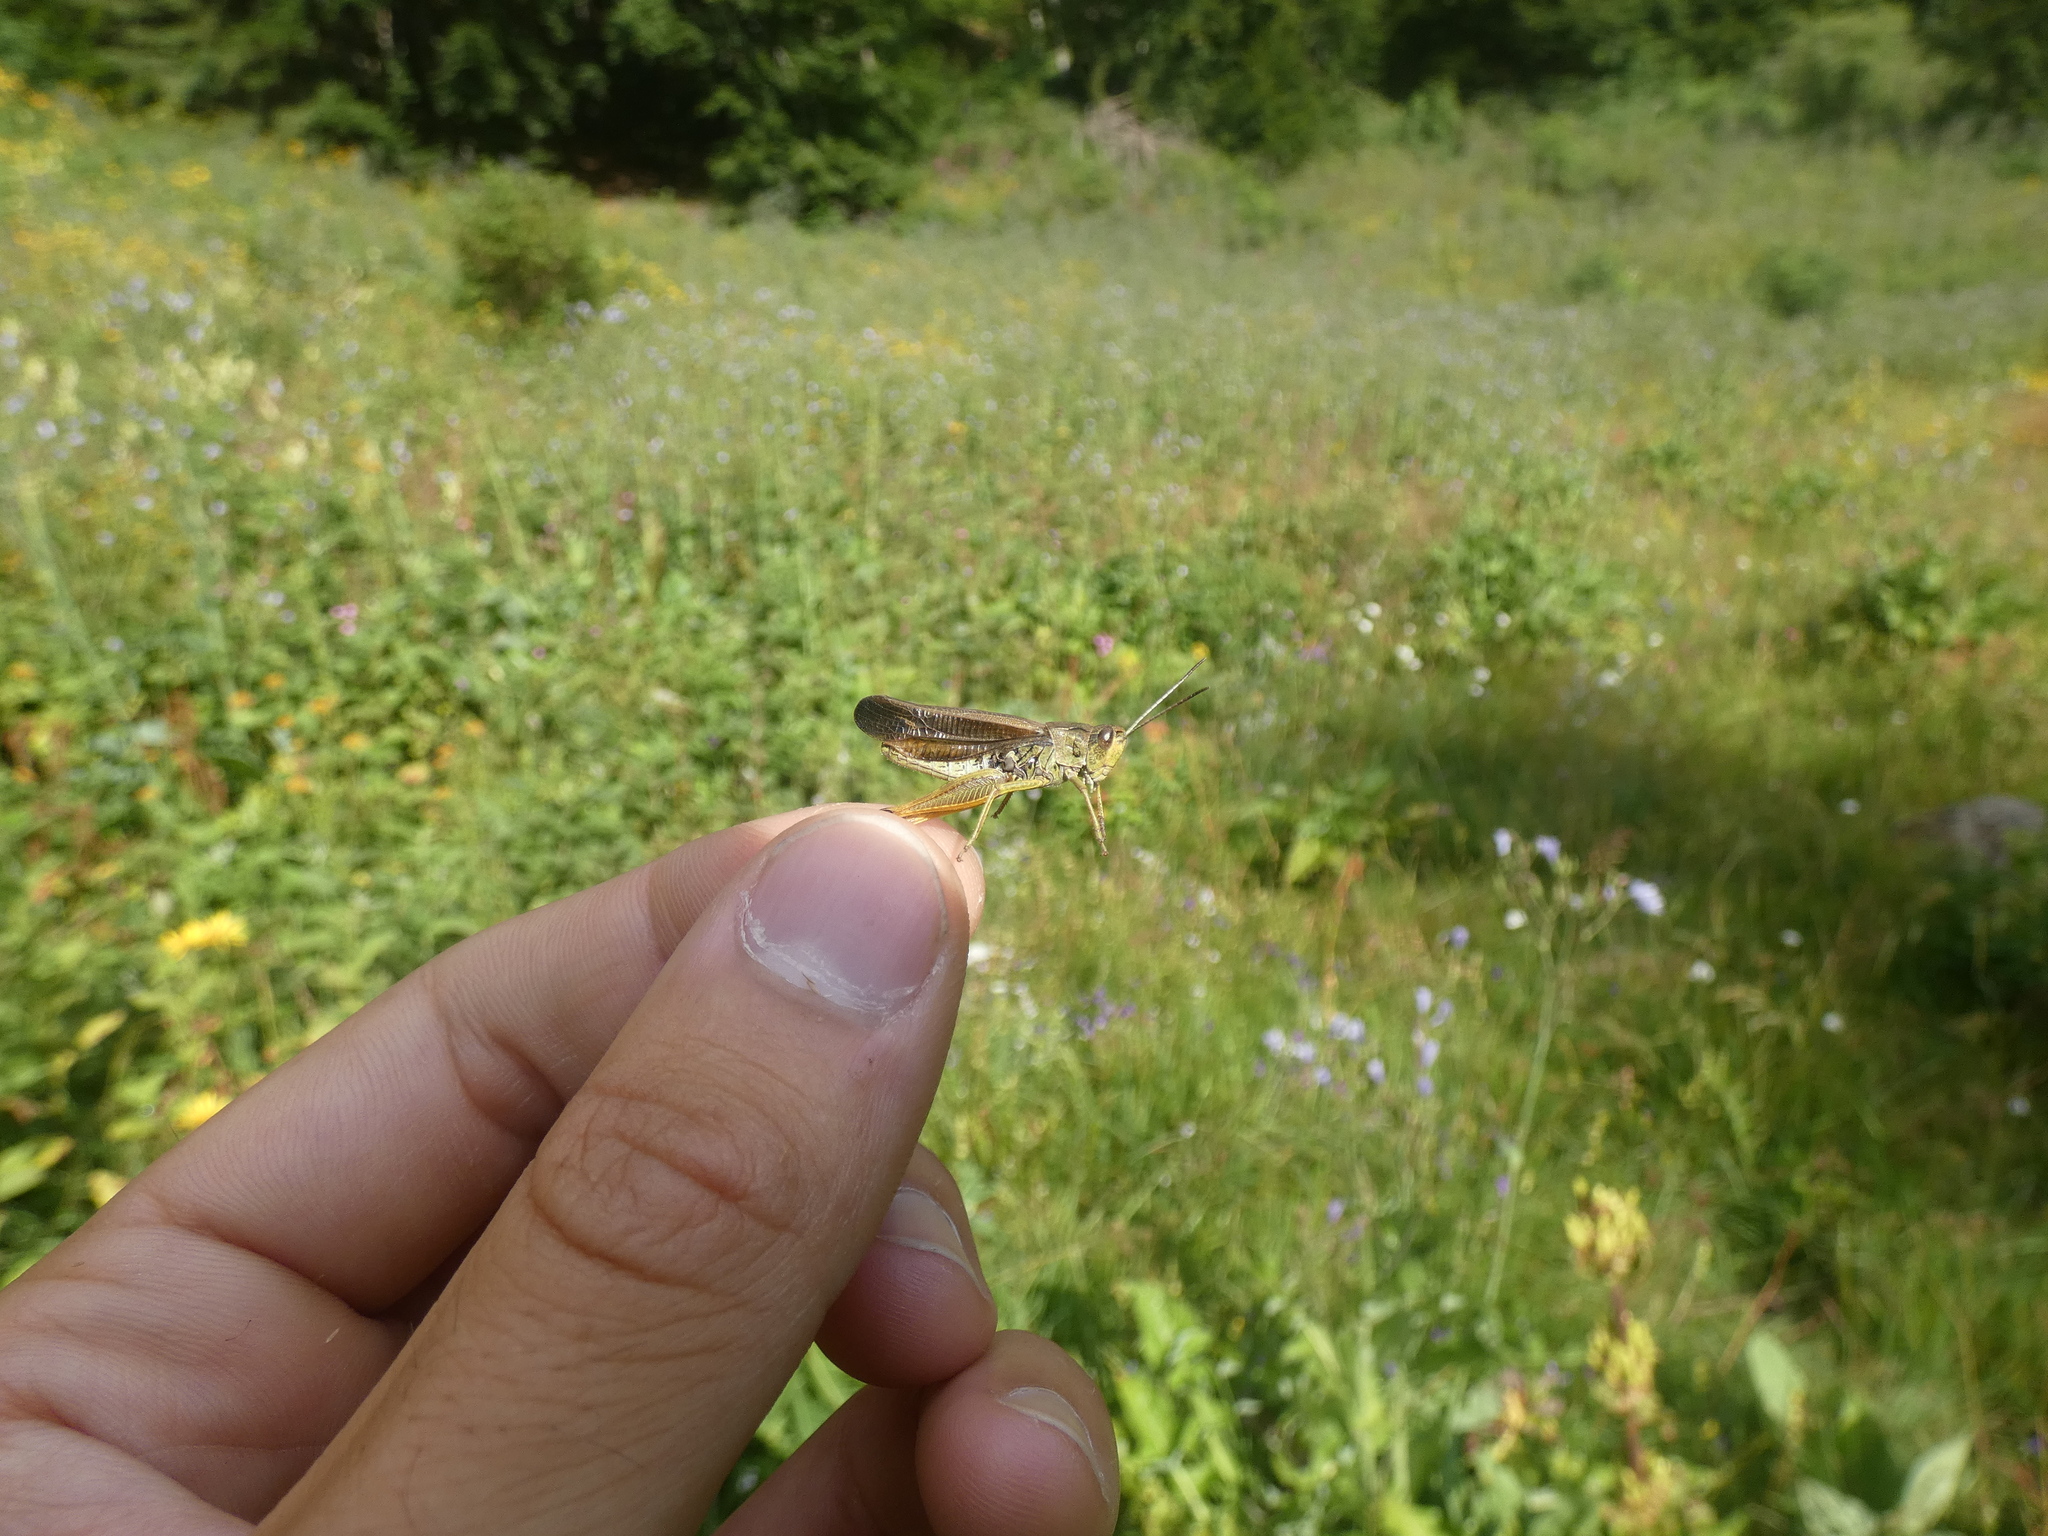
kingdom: Animalia
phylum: Arthropoda
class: Insecta
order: Orthoptera
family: Acrididae
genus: Stauroderus
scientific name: Stauroderus scalaris
